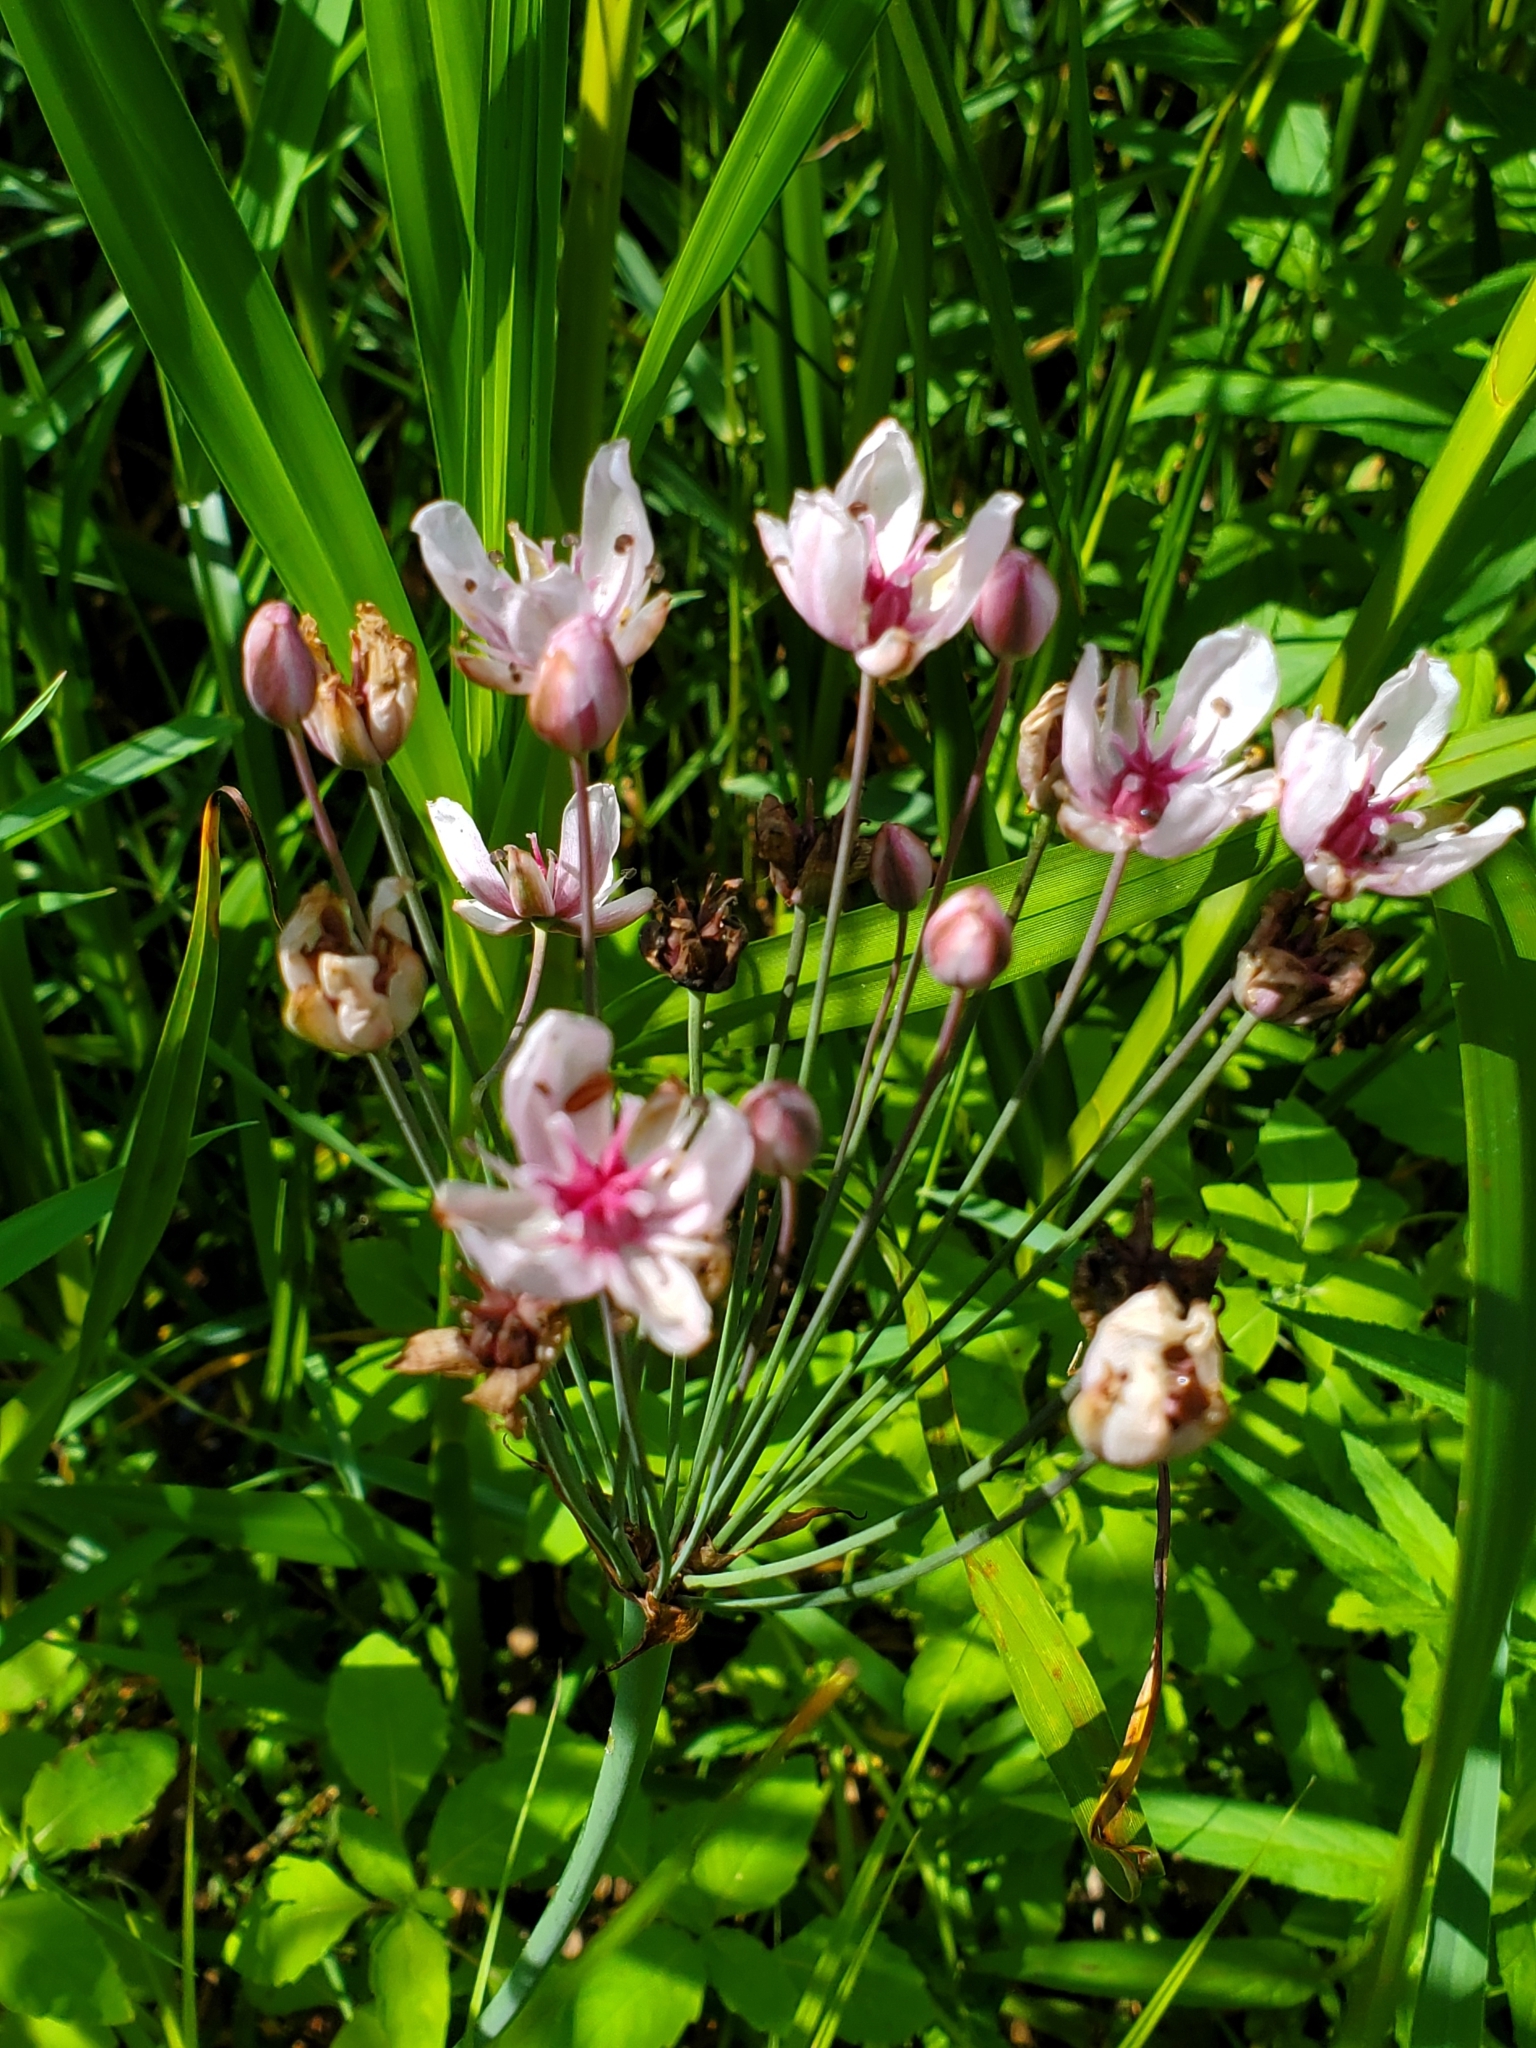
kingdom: Plantae
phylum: Tracheophyta
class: Liliopsida
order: Alismatales
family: Butomaceae
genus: Butomus
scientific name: Butomus umbellatus
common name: Flowering-rush
